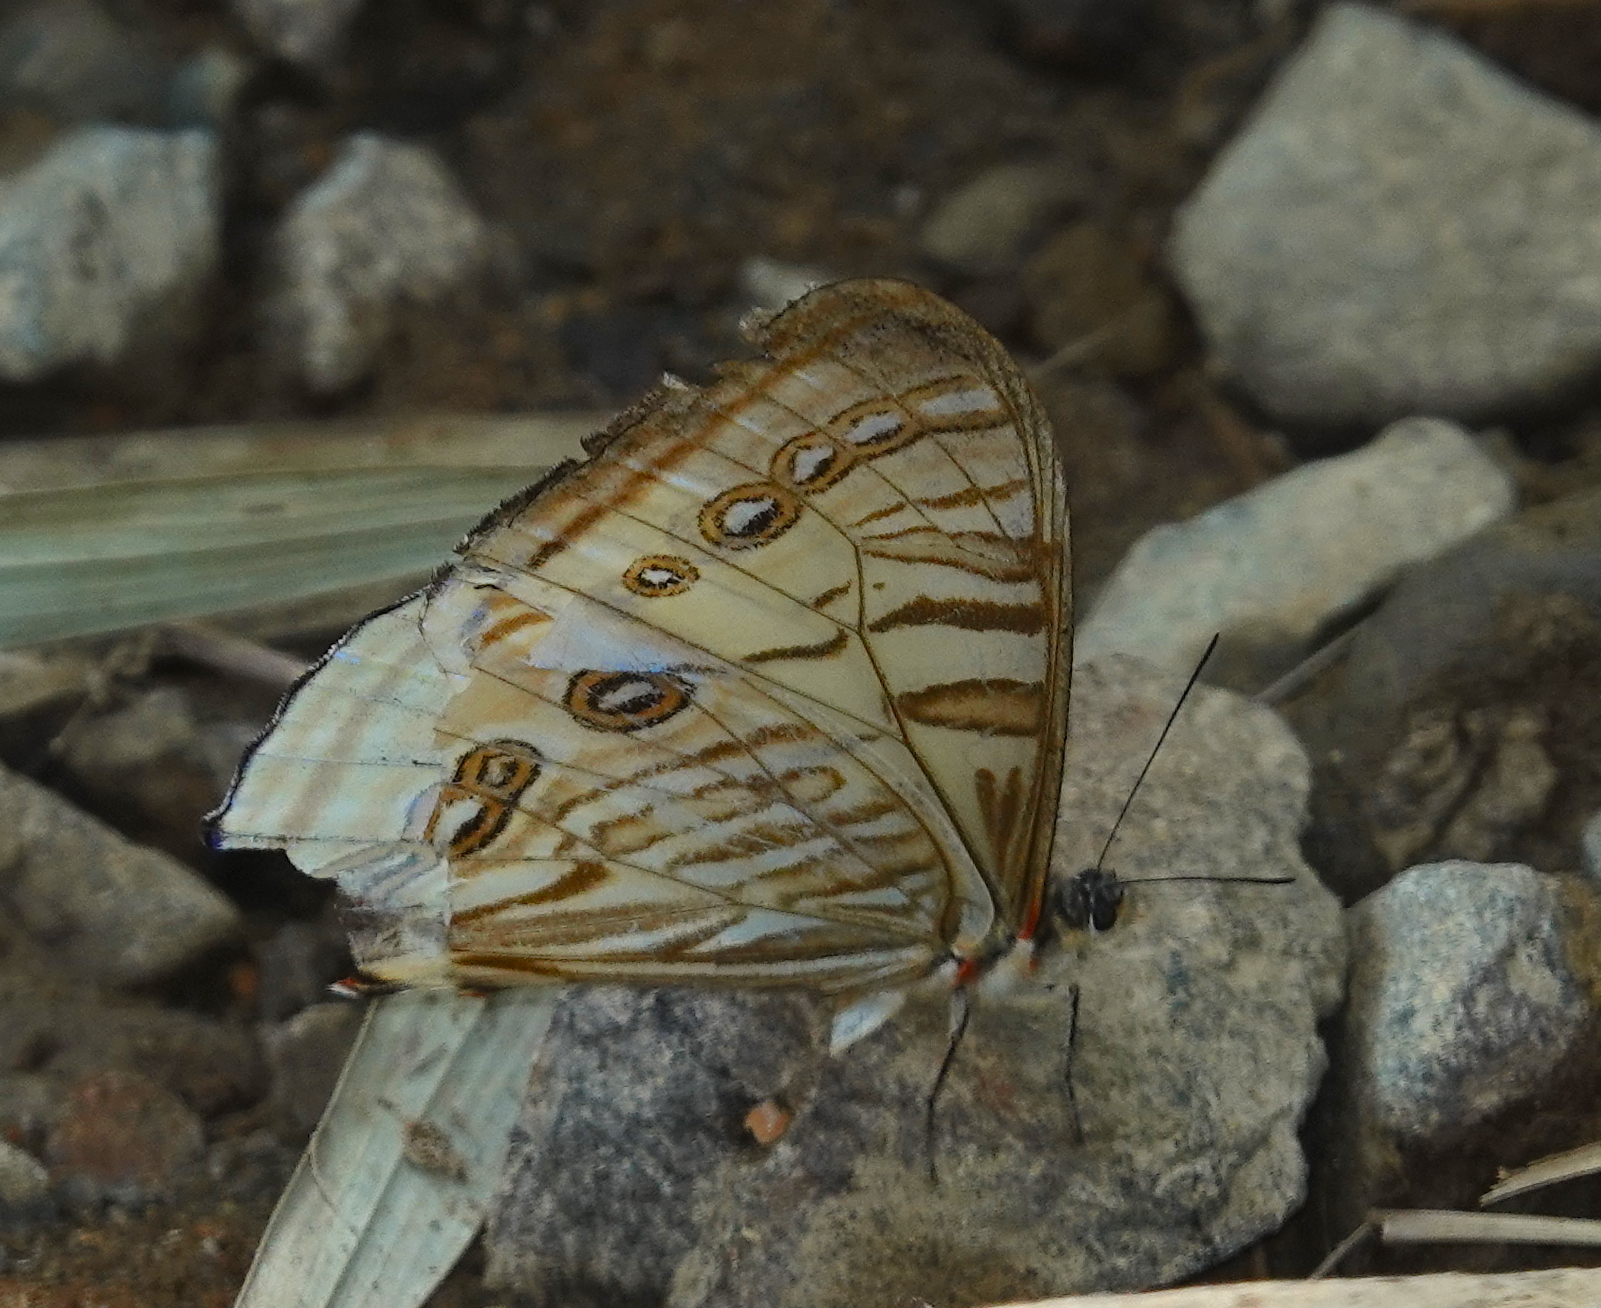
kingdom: Animalia
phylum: Arthropoda
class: Insecta
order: Lepidoptera
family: Nymphalidae
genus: Morpho
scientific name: Morpho sulkowskyi
